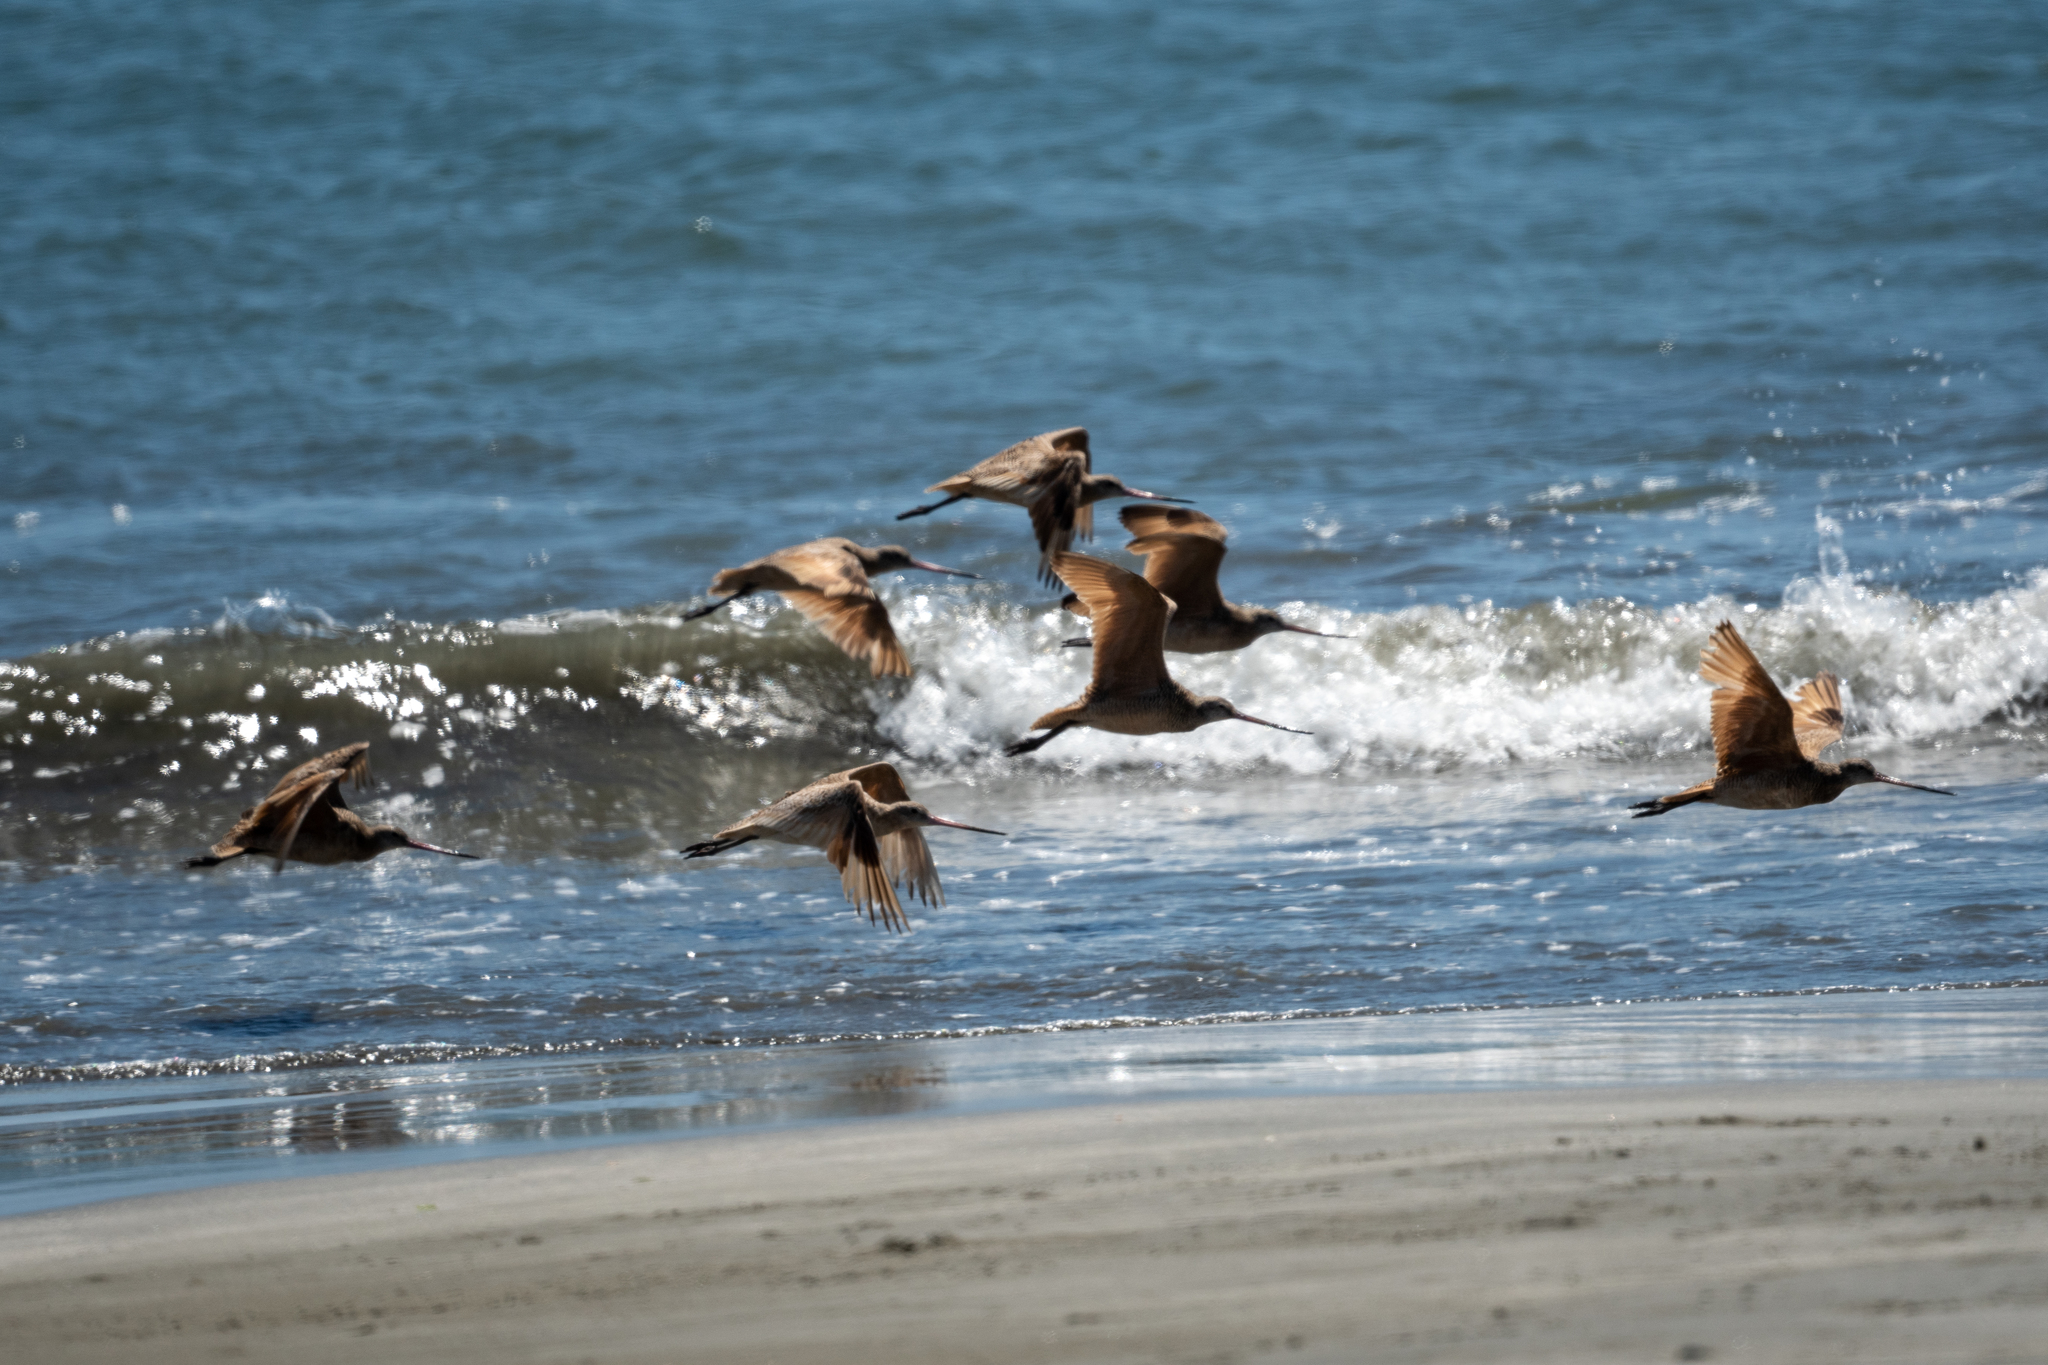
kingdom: Animalia
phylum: Chordata
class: Aves
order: Charadriiformes
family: Scolopacidae
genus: Limosa
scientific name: Limosa fedoa
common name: Marbled godwit
